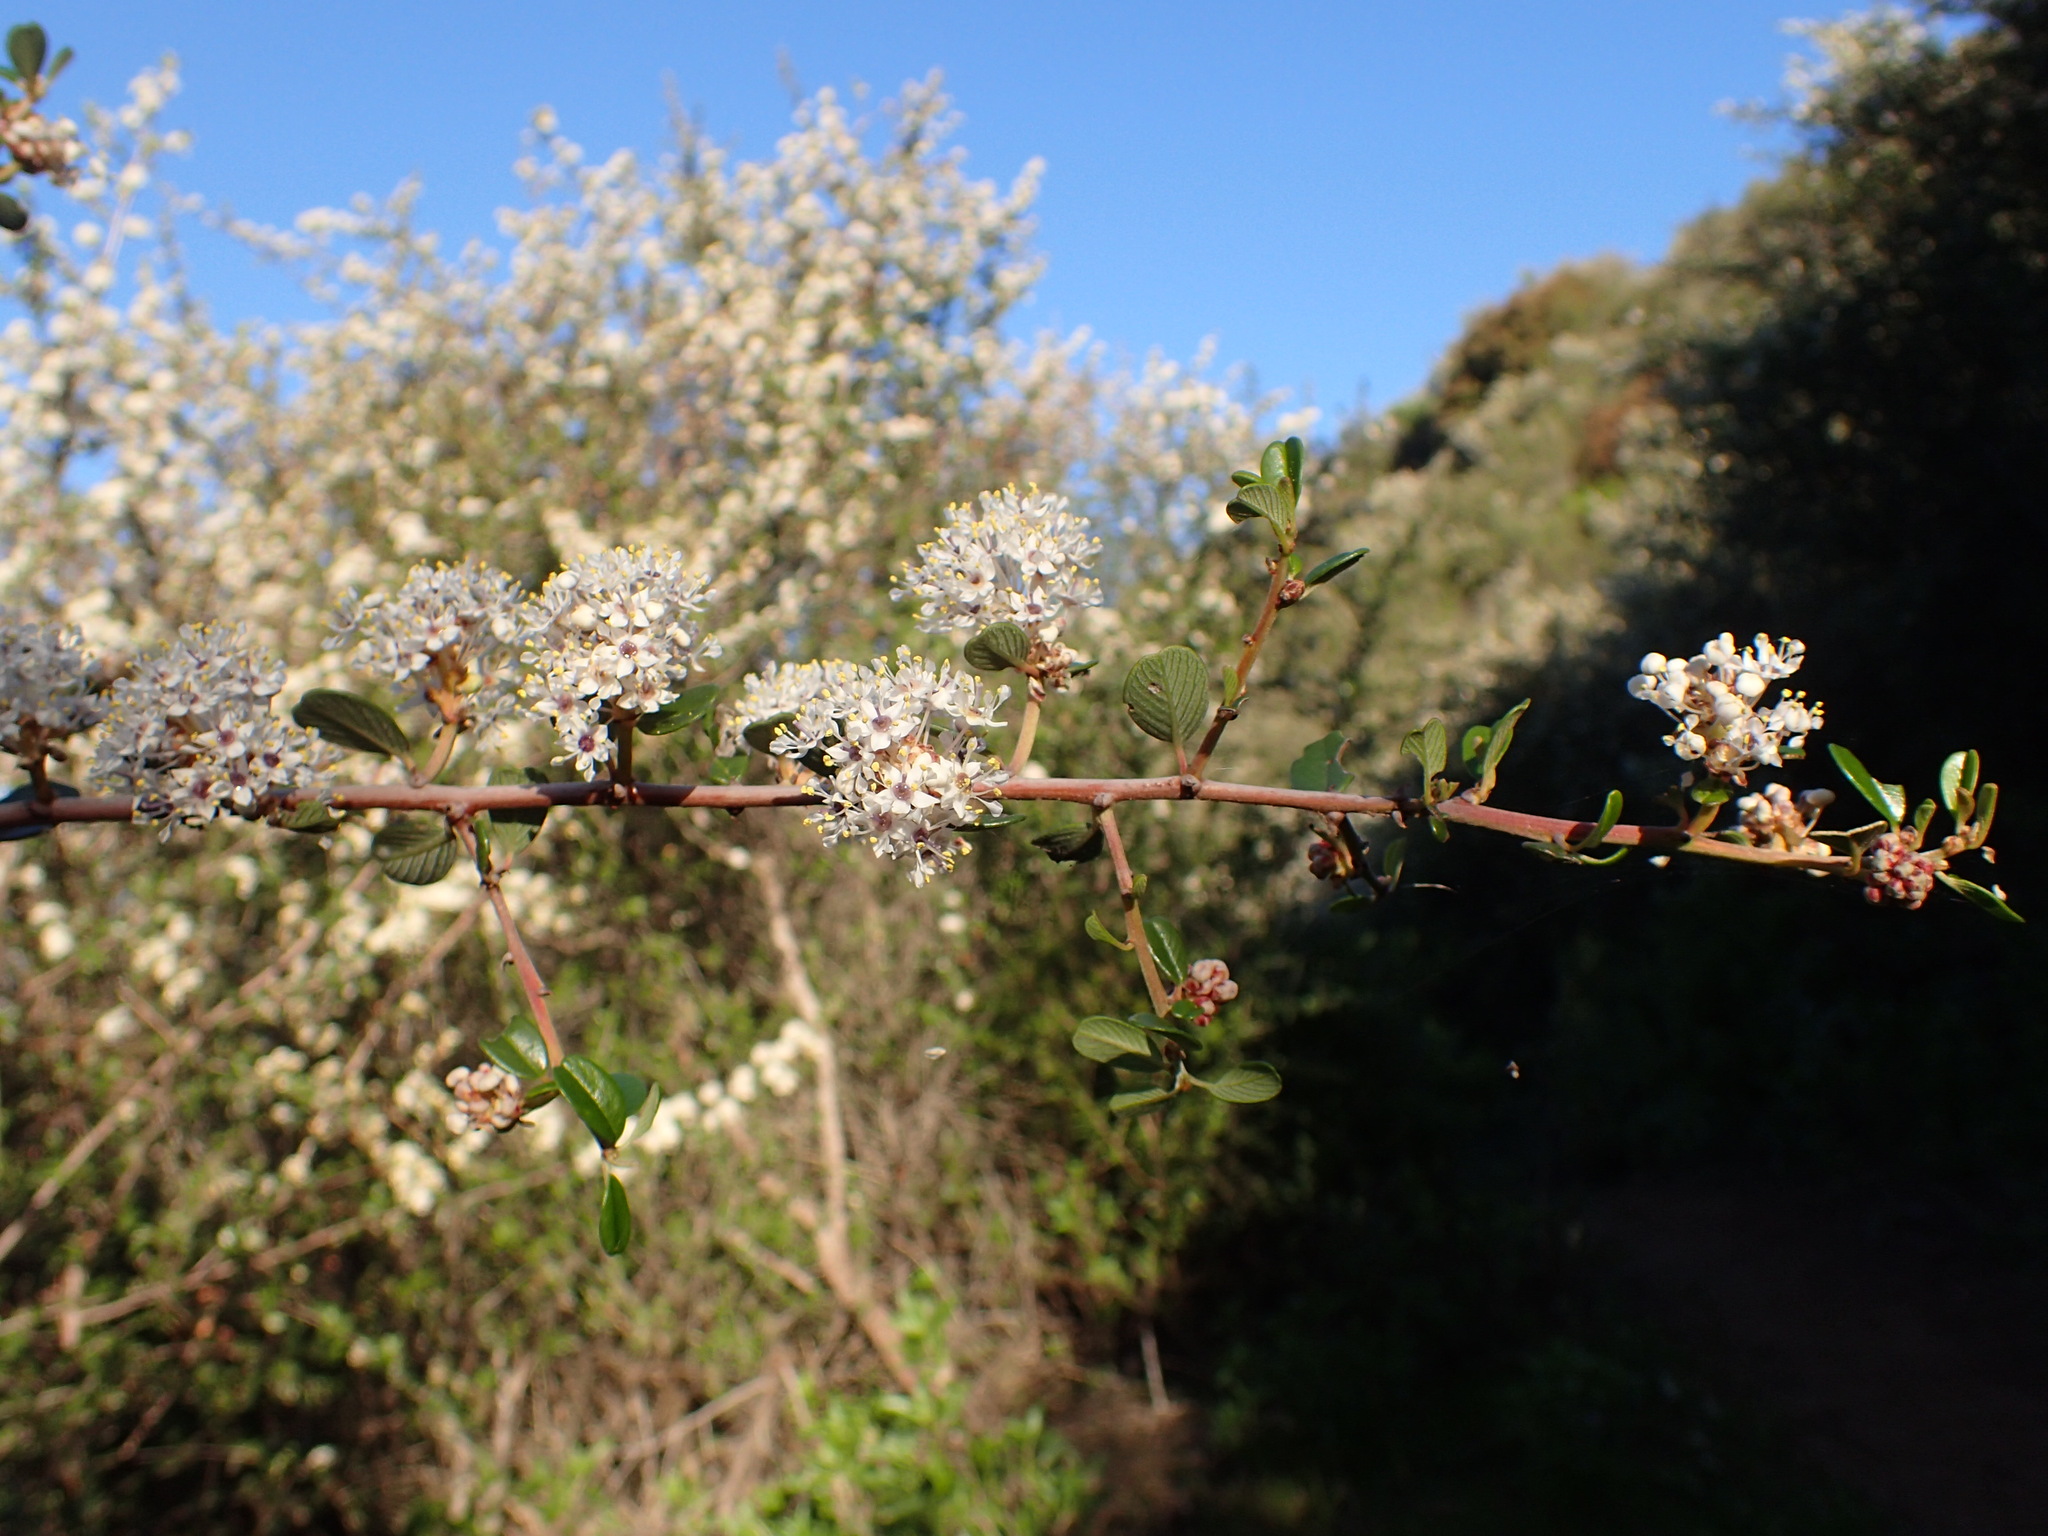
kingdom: Plantae
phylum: Tracheophyta
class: Magnoliopsida
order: Rosales
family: Rhamnaceae
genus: Ceanothus
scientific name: Ceanothus megacarpus
